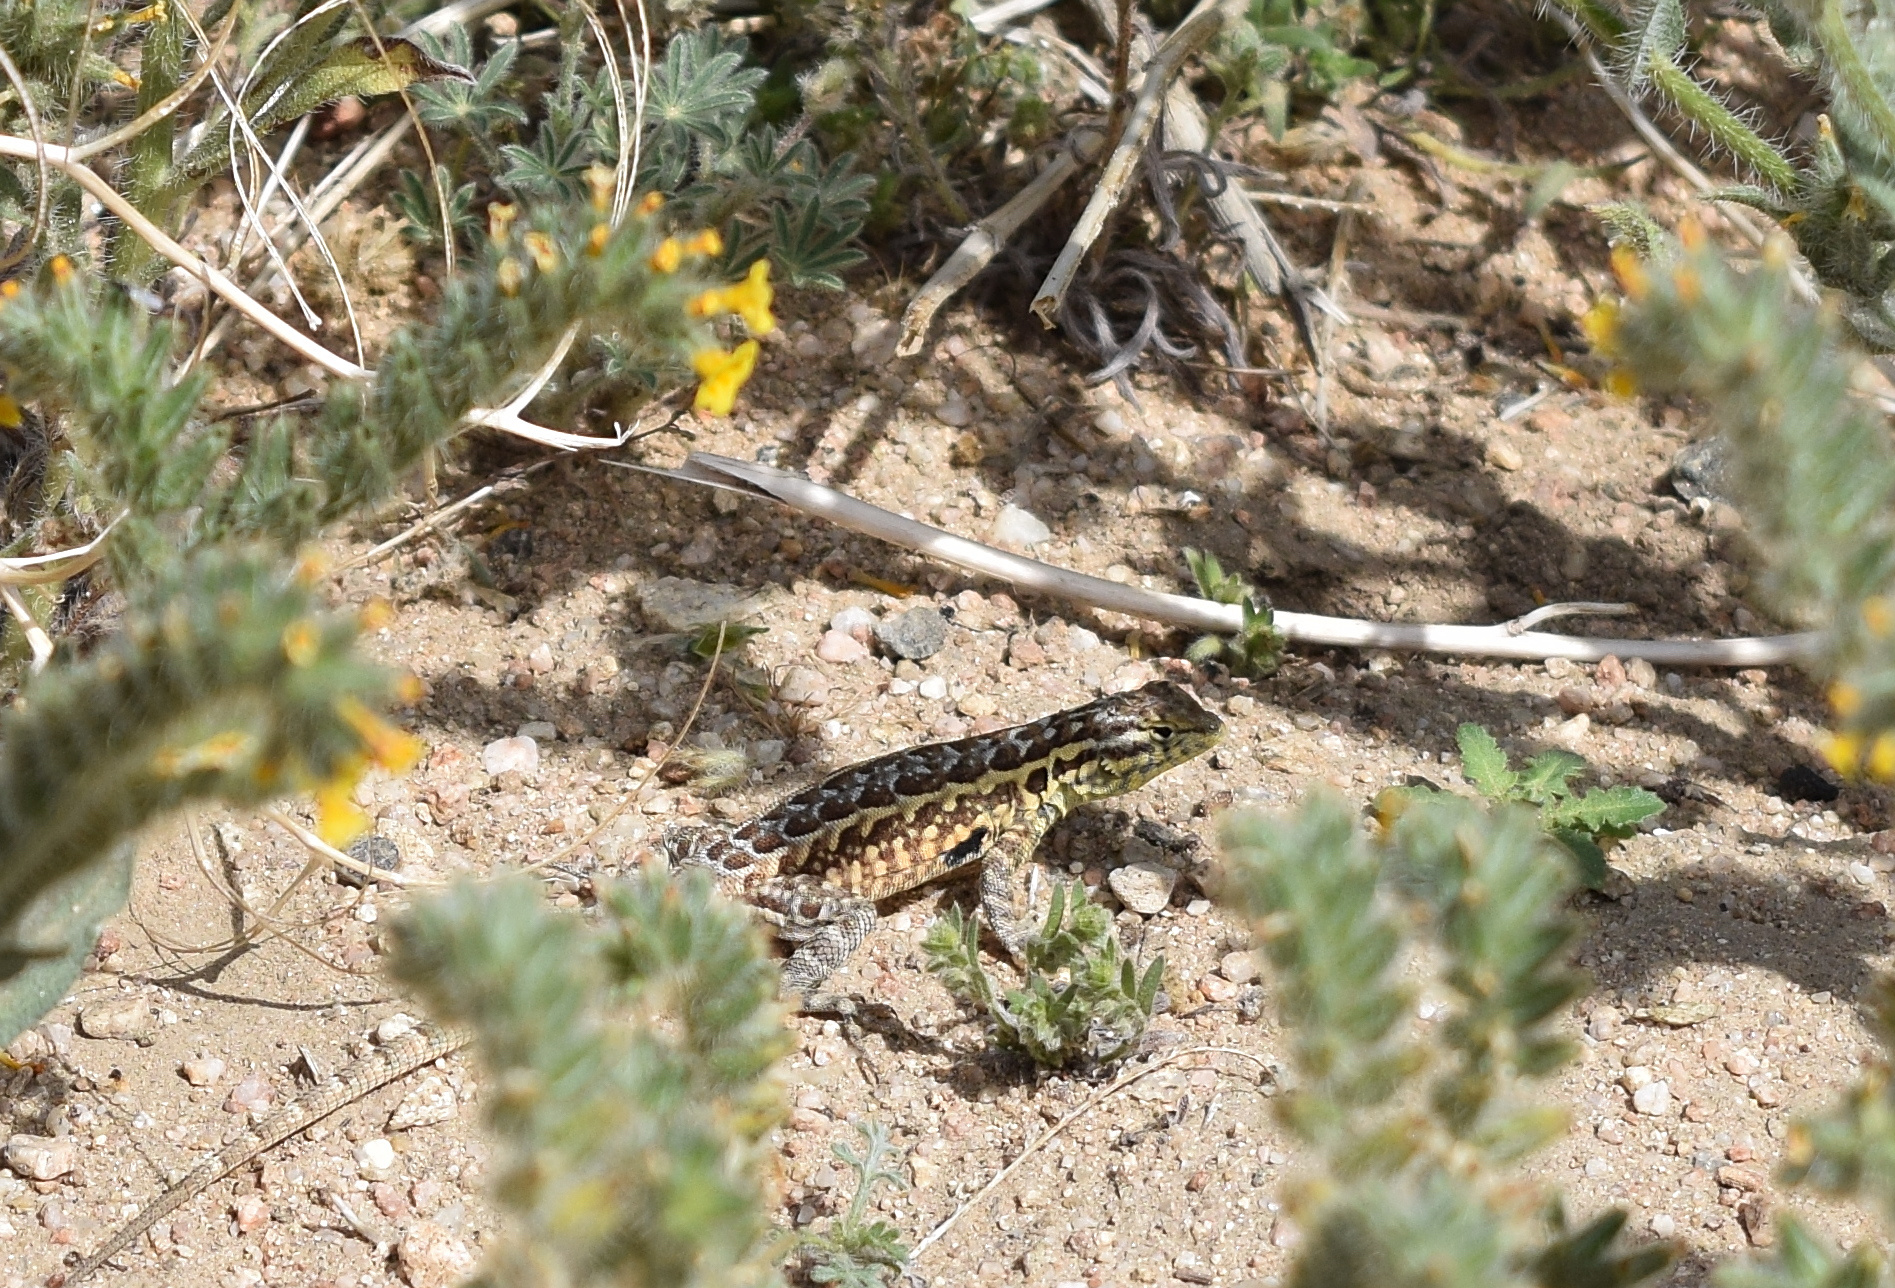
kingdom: Animalia
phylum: Chordata
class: Squamata
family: Phrynosomatidae
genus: Uta
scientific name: Uta stansburiana
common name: Side-blotched lizard
